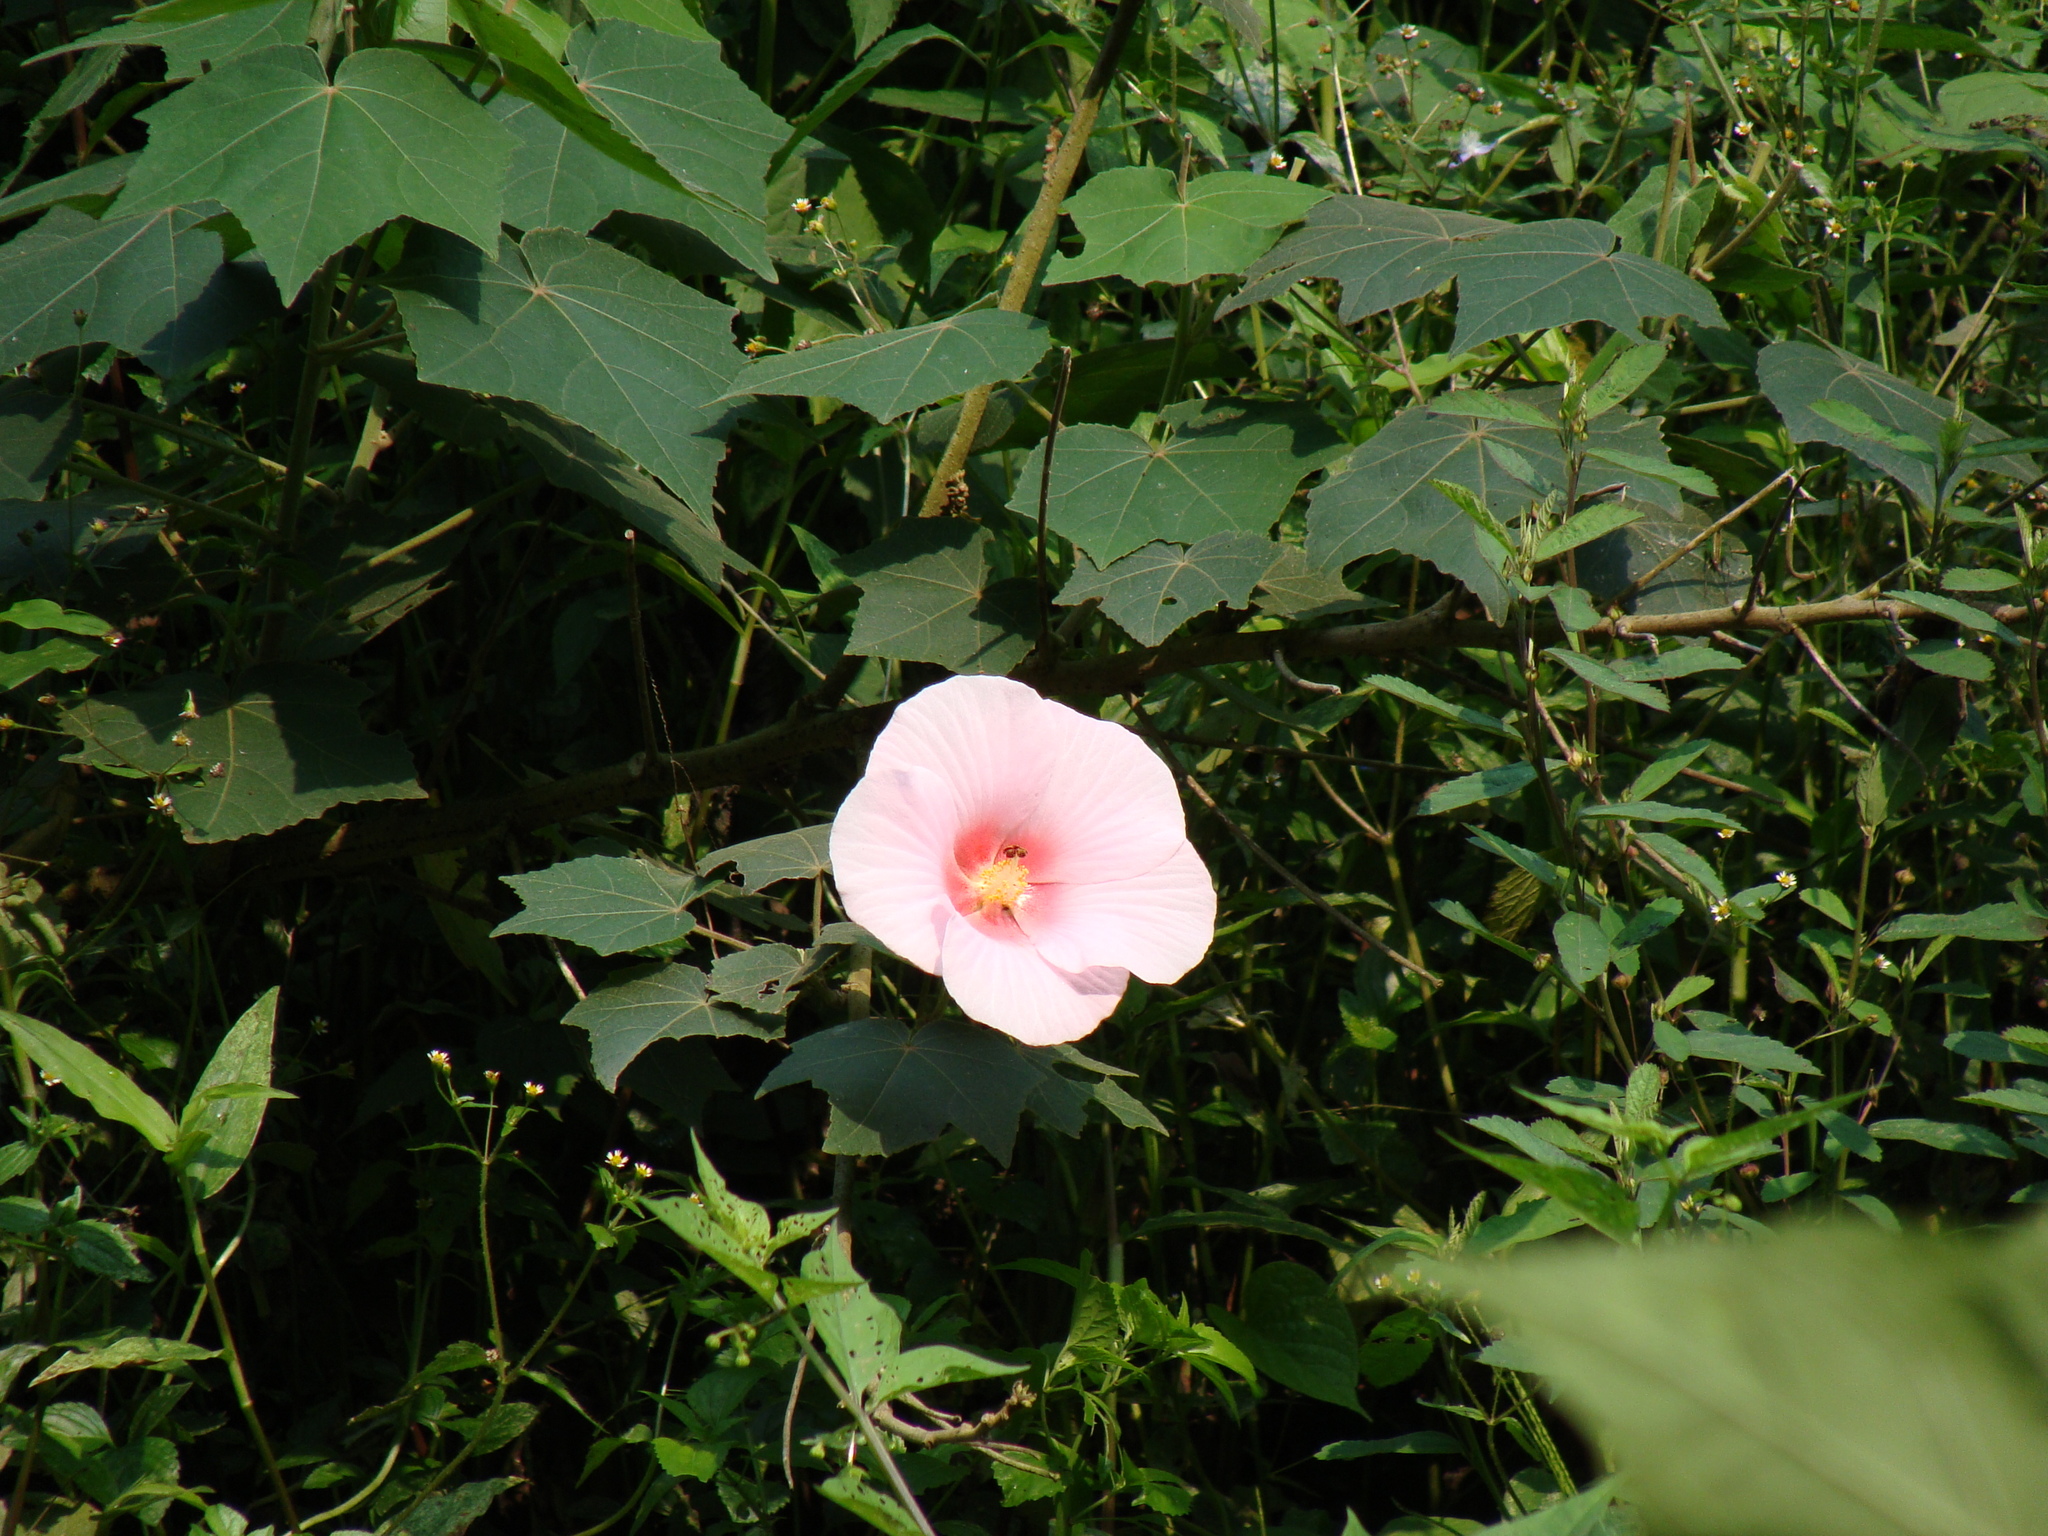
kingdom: Plantae
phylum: Tracheophyta
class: Magnoliopsida
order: Malvales
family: Malvaceae
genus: Hibiscus
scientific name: Hibiscus mutabilis
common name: Dixie rosemallow
